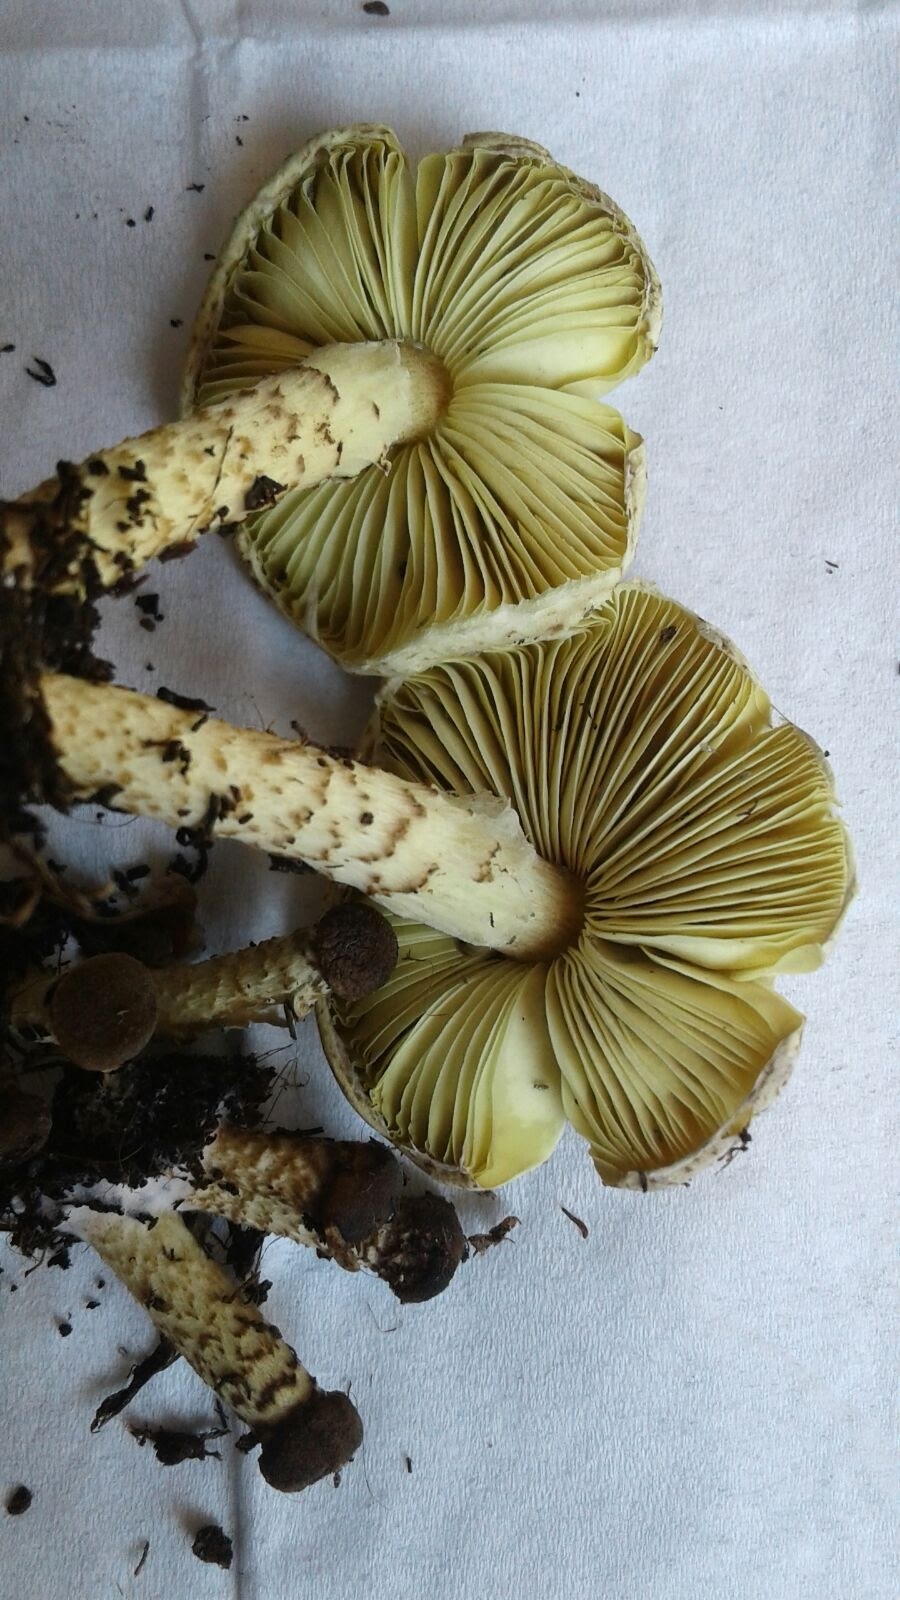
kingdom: Fungi
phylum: Basidiomycota
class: Agaricomycetes
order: Agaricales
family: Agaricaceae
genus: Lepiota
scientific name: Lepiota xanthophylla
